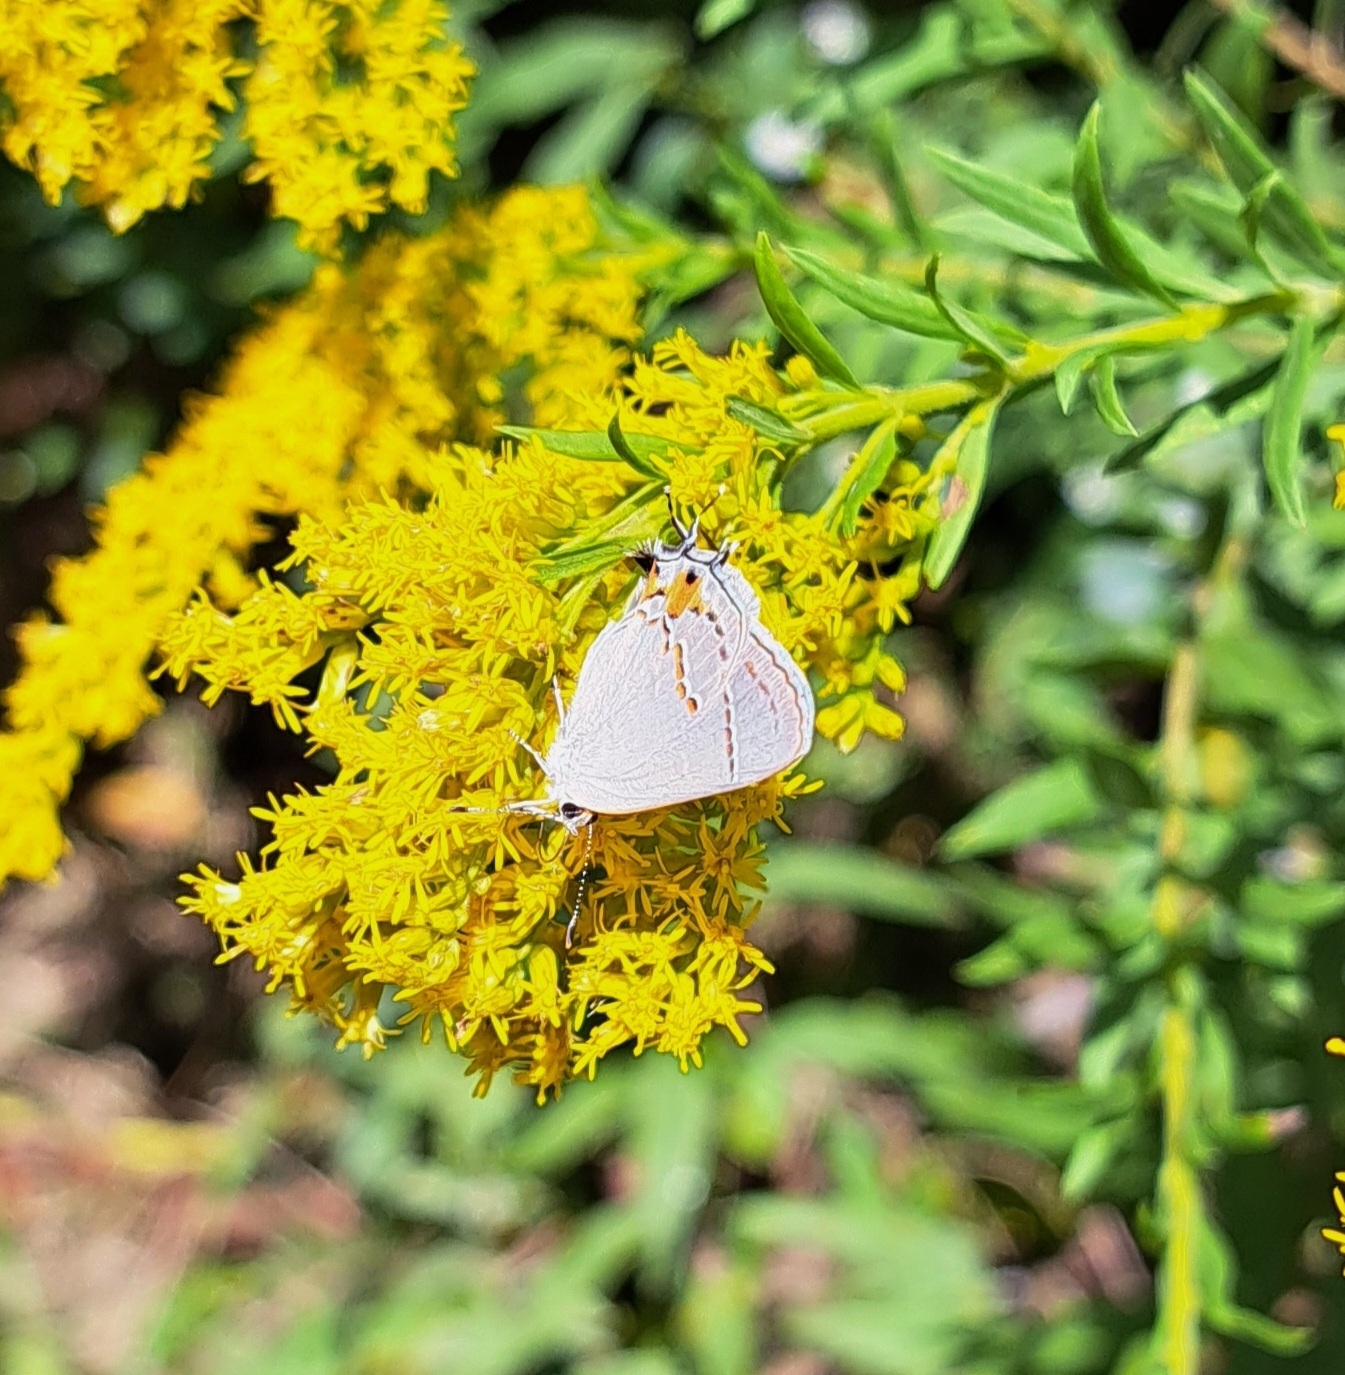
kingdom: Animalia
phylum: Arthropoda
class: Insecta
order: Lepidoptera
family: Lycaenidae
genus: Strymon
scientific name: Strymon melinus
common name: Gray hairstreak
